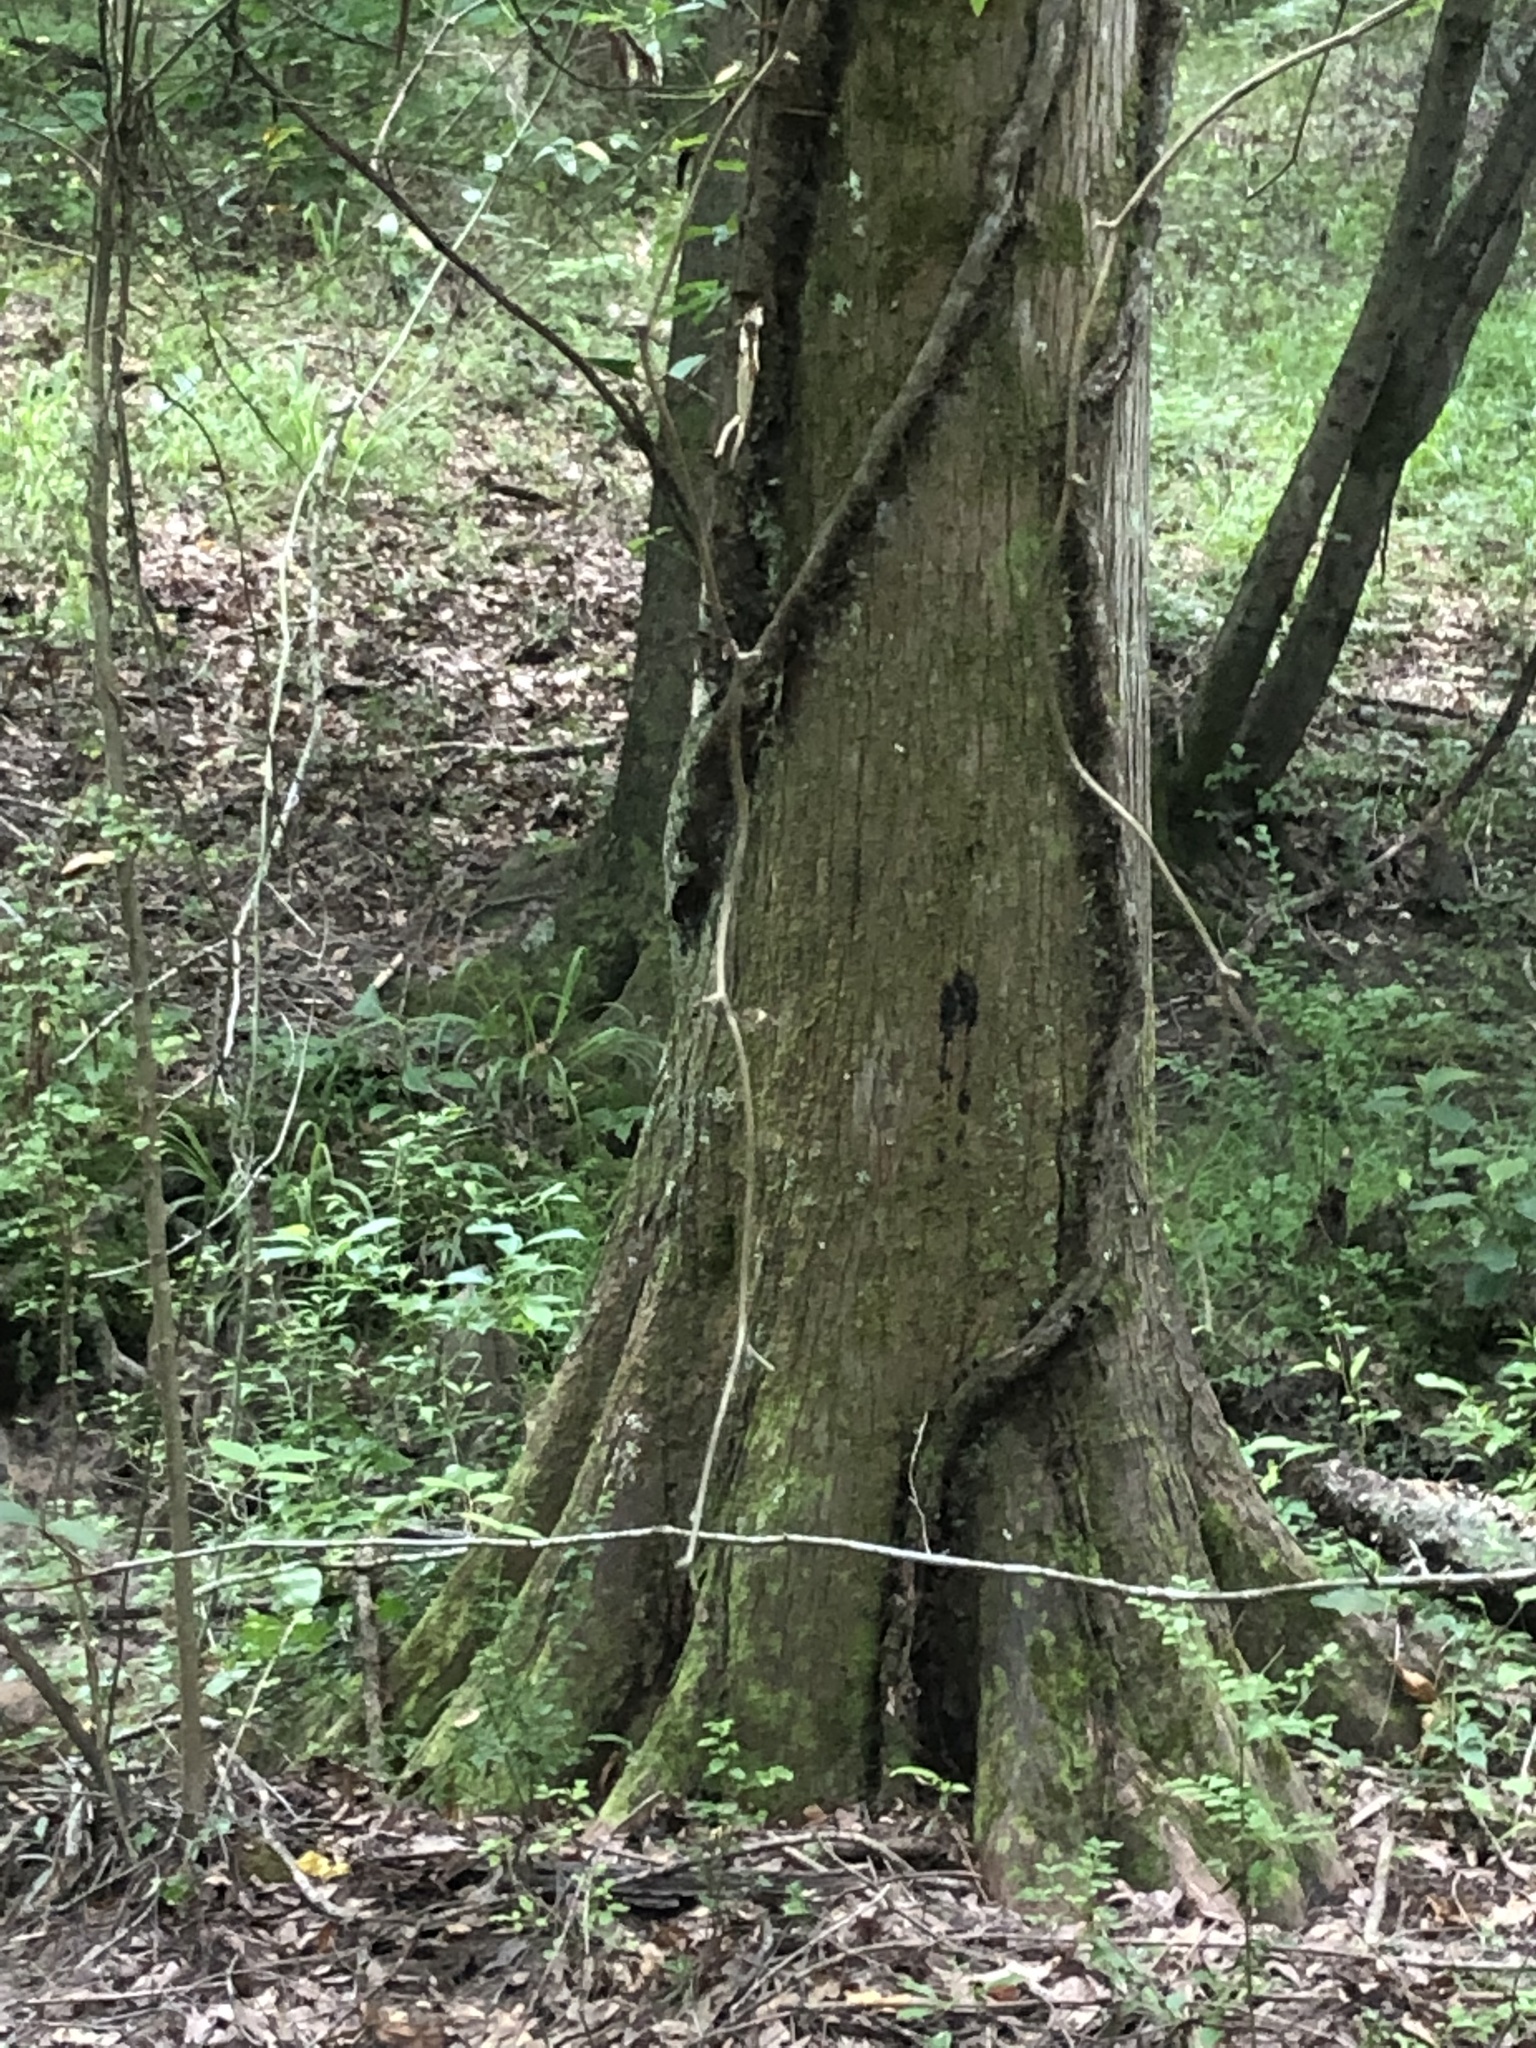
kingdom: Plantae
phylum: Tracheophyta
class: Pinopsida
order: Pinales
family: Cupressaceae
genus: Taxodium
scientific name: Taxodium distichum
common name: Bald cypress
